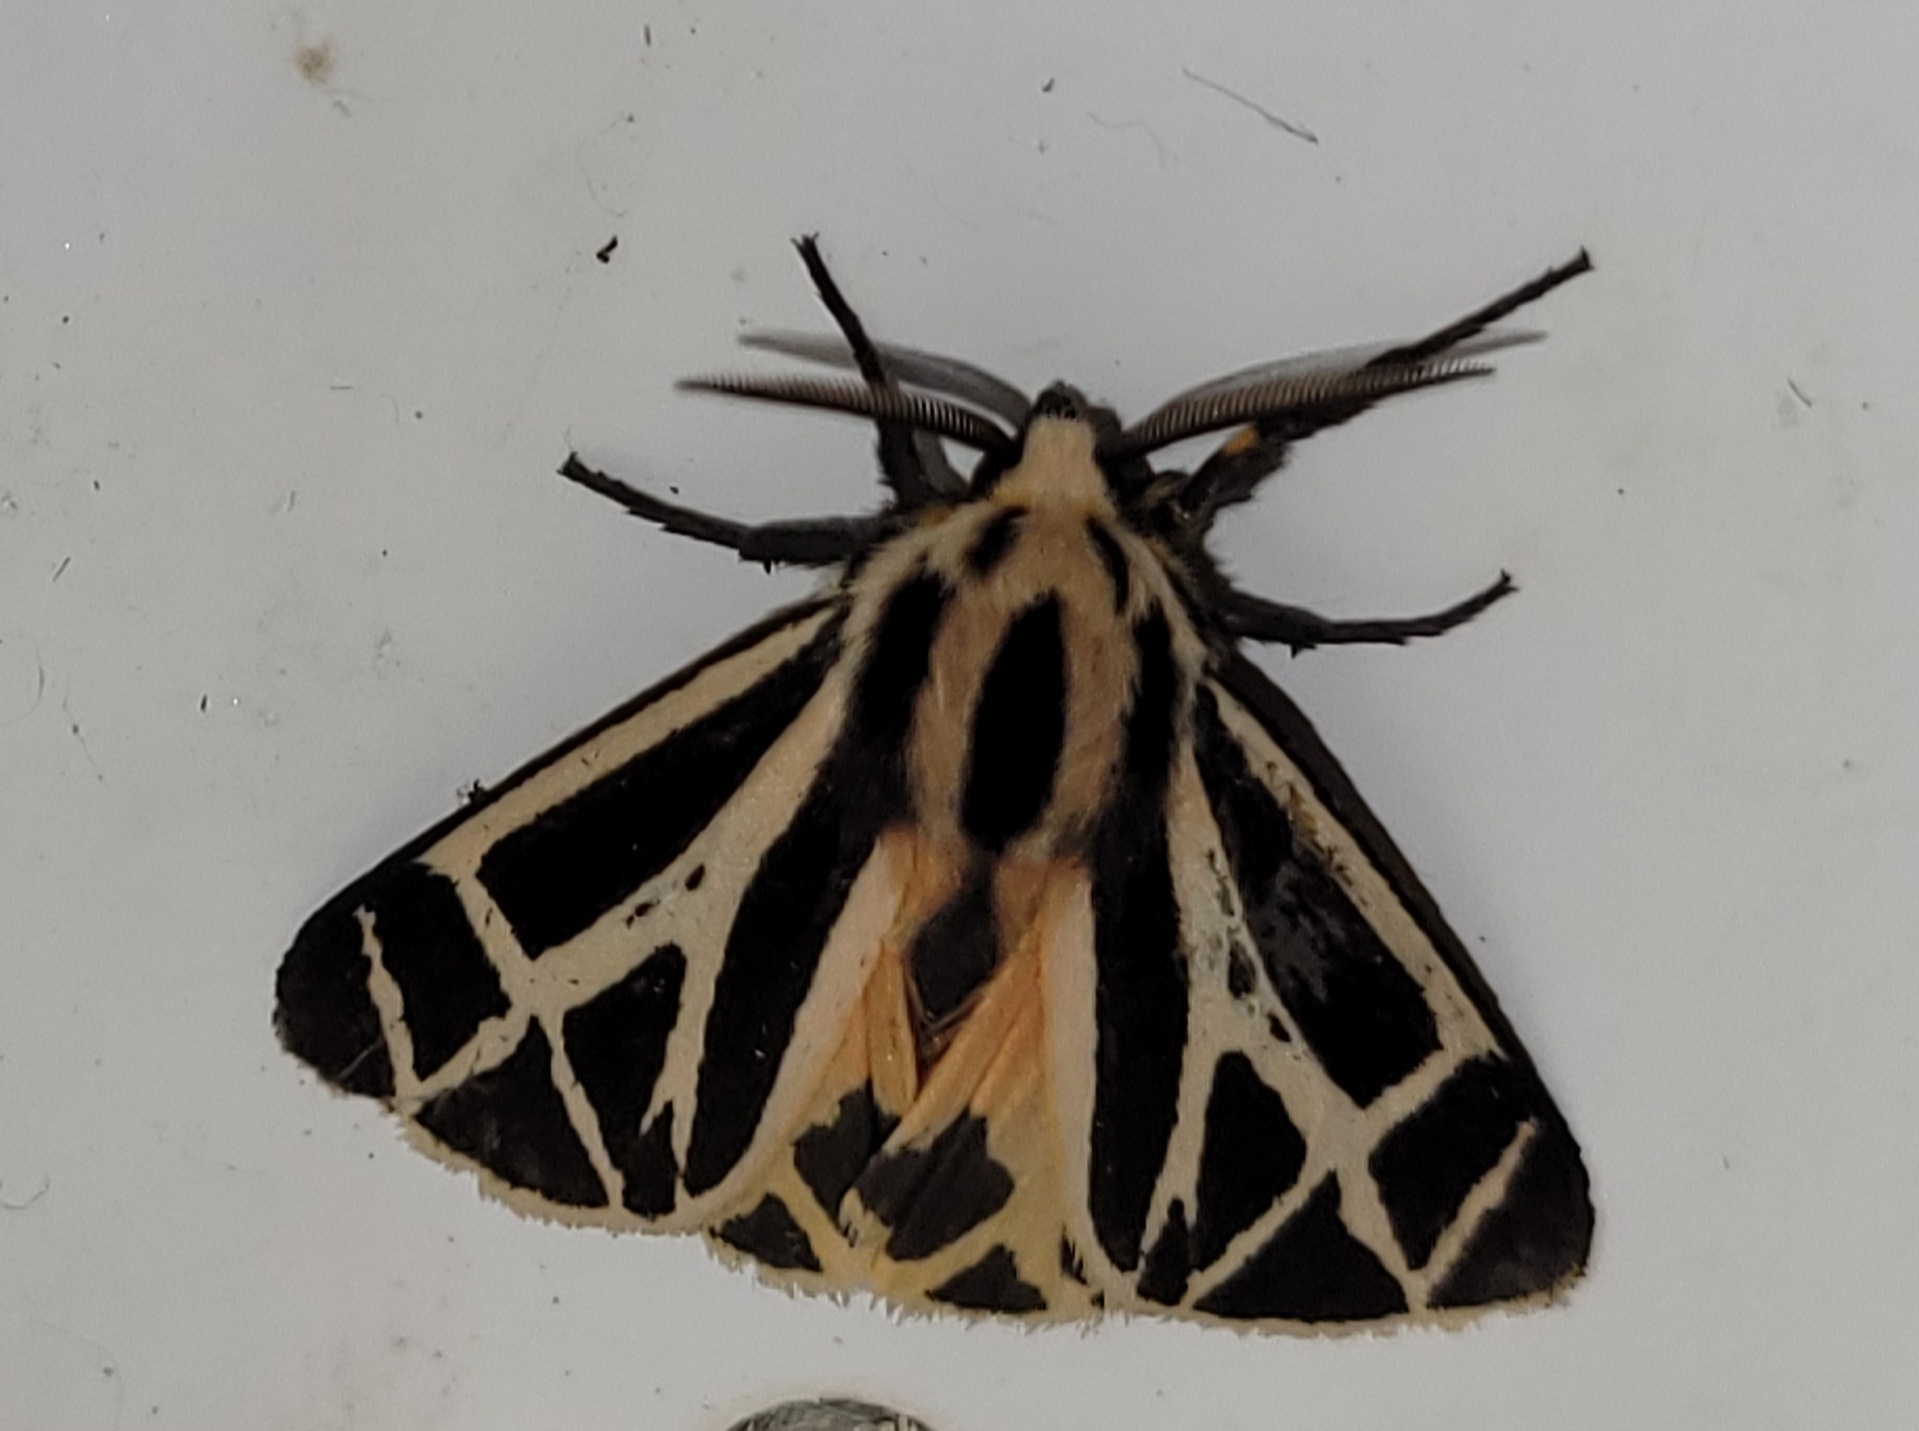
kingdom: Animalia
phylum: Arthropoda
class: Insecta
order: Lepidoptera
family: Erebidae
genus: Apantesis
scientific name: Apantesis phalerata
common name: Harnessed tiger moth
